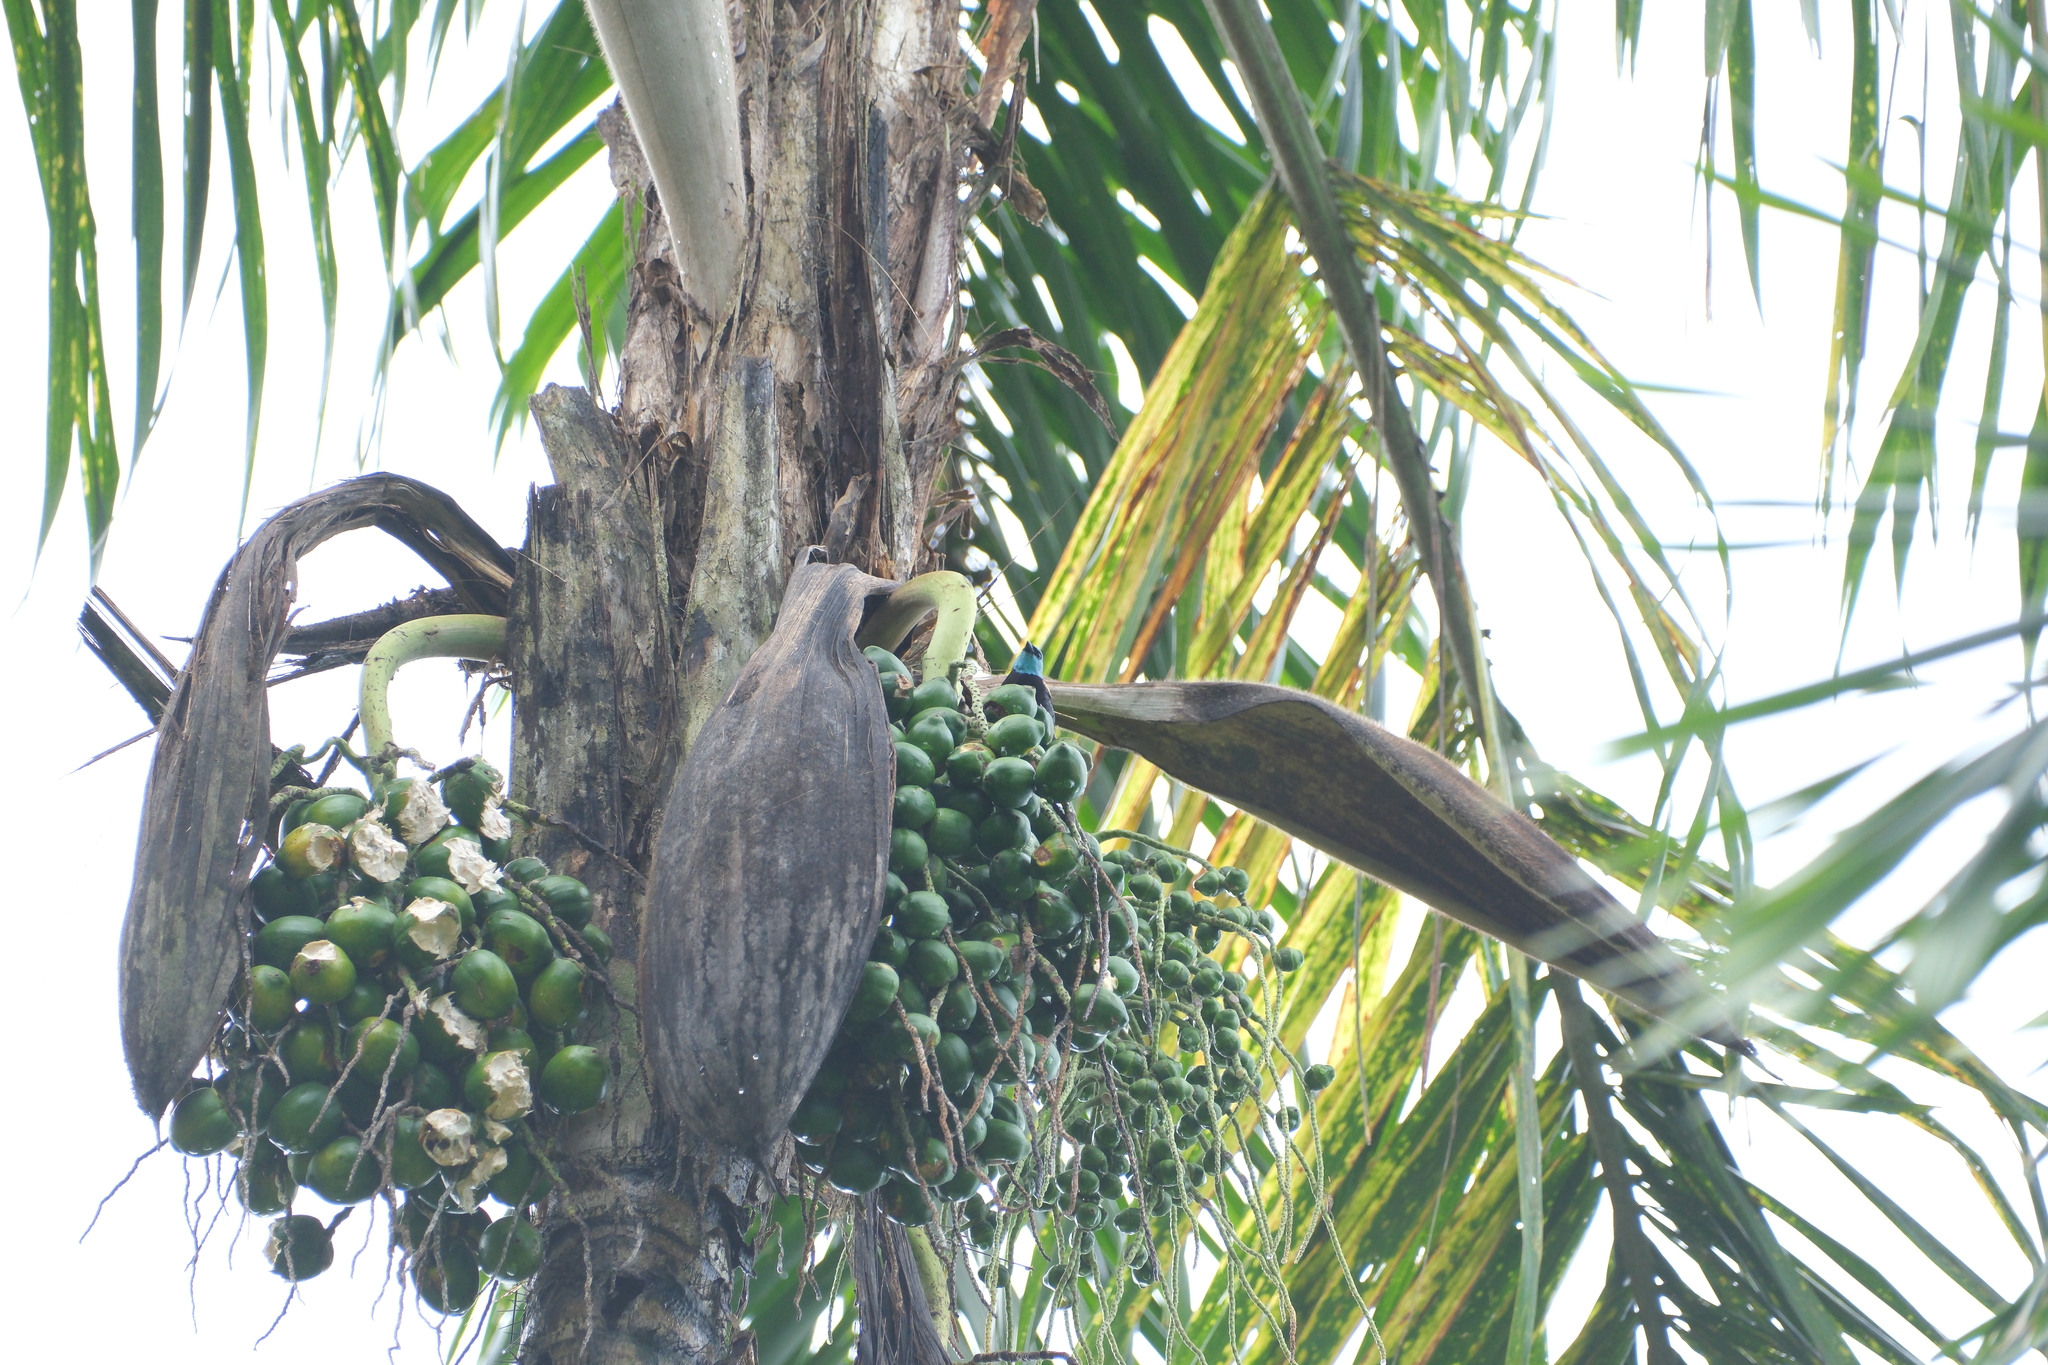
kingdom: Plantae
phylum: Tracheophyta
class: Liliopsida
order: Arecales
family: Arecaceae
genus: Bactris
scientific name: Bactris gasipaes
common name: Peach palm
